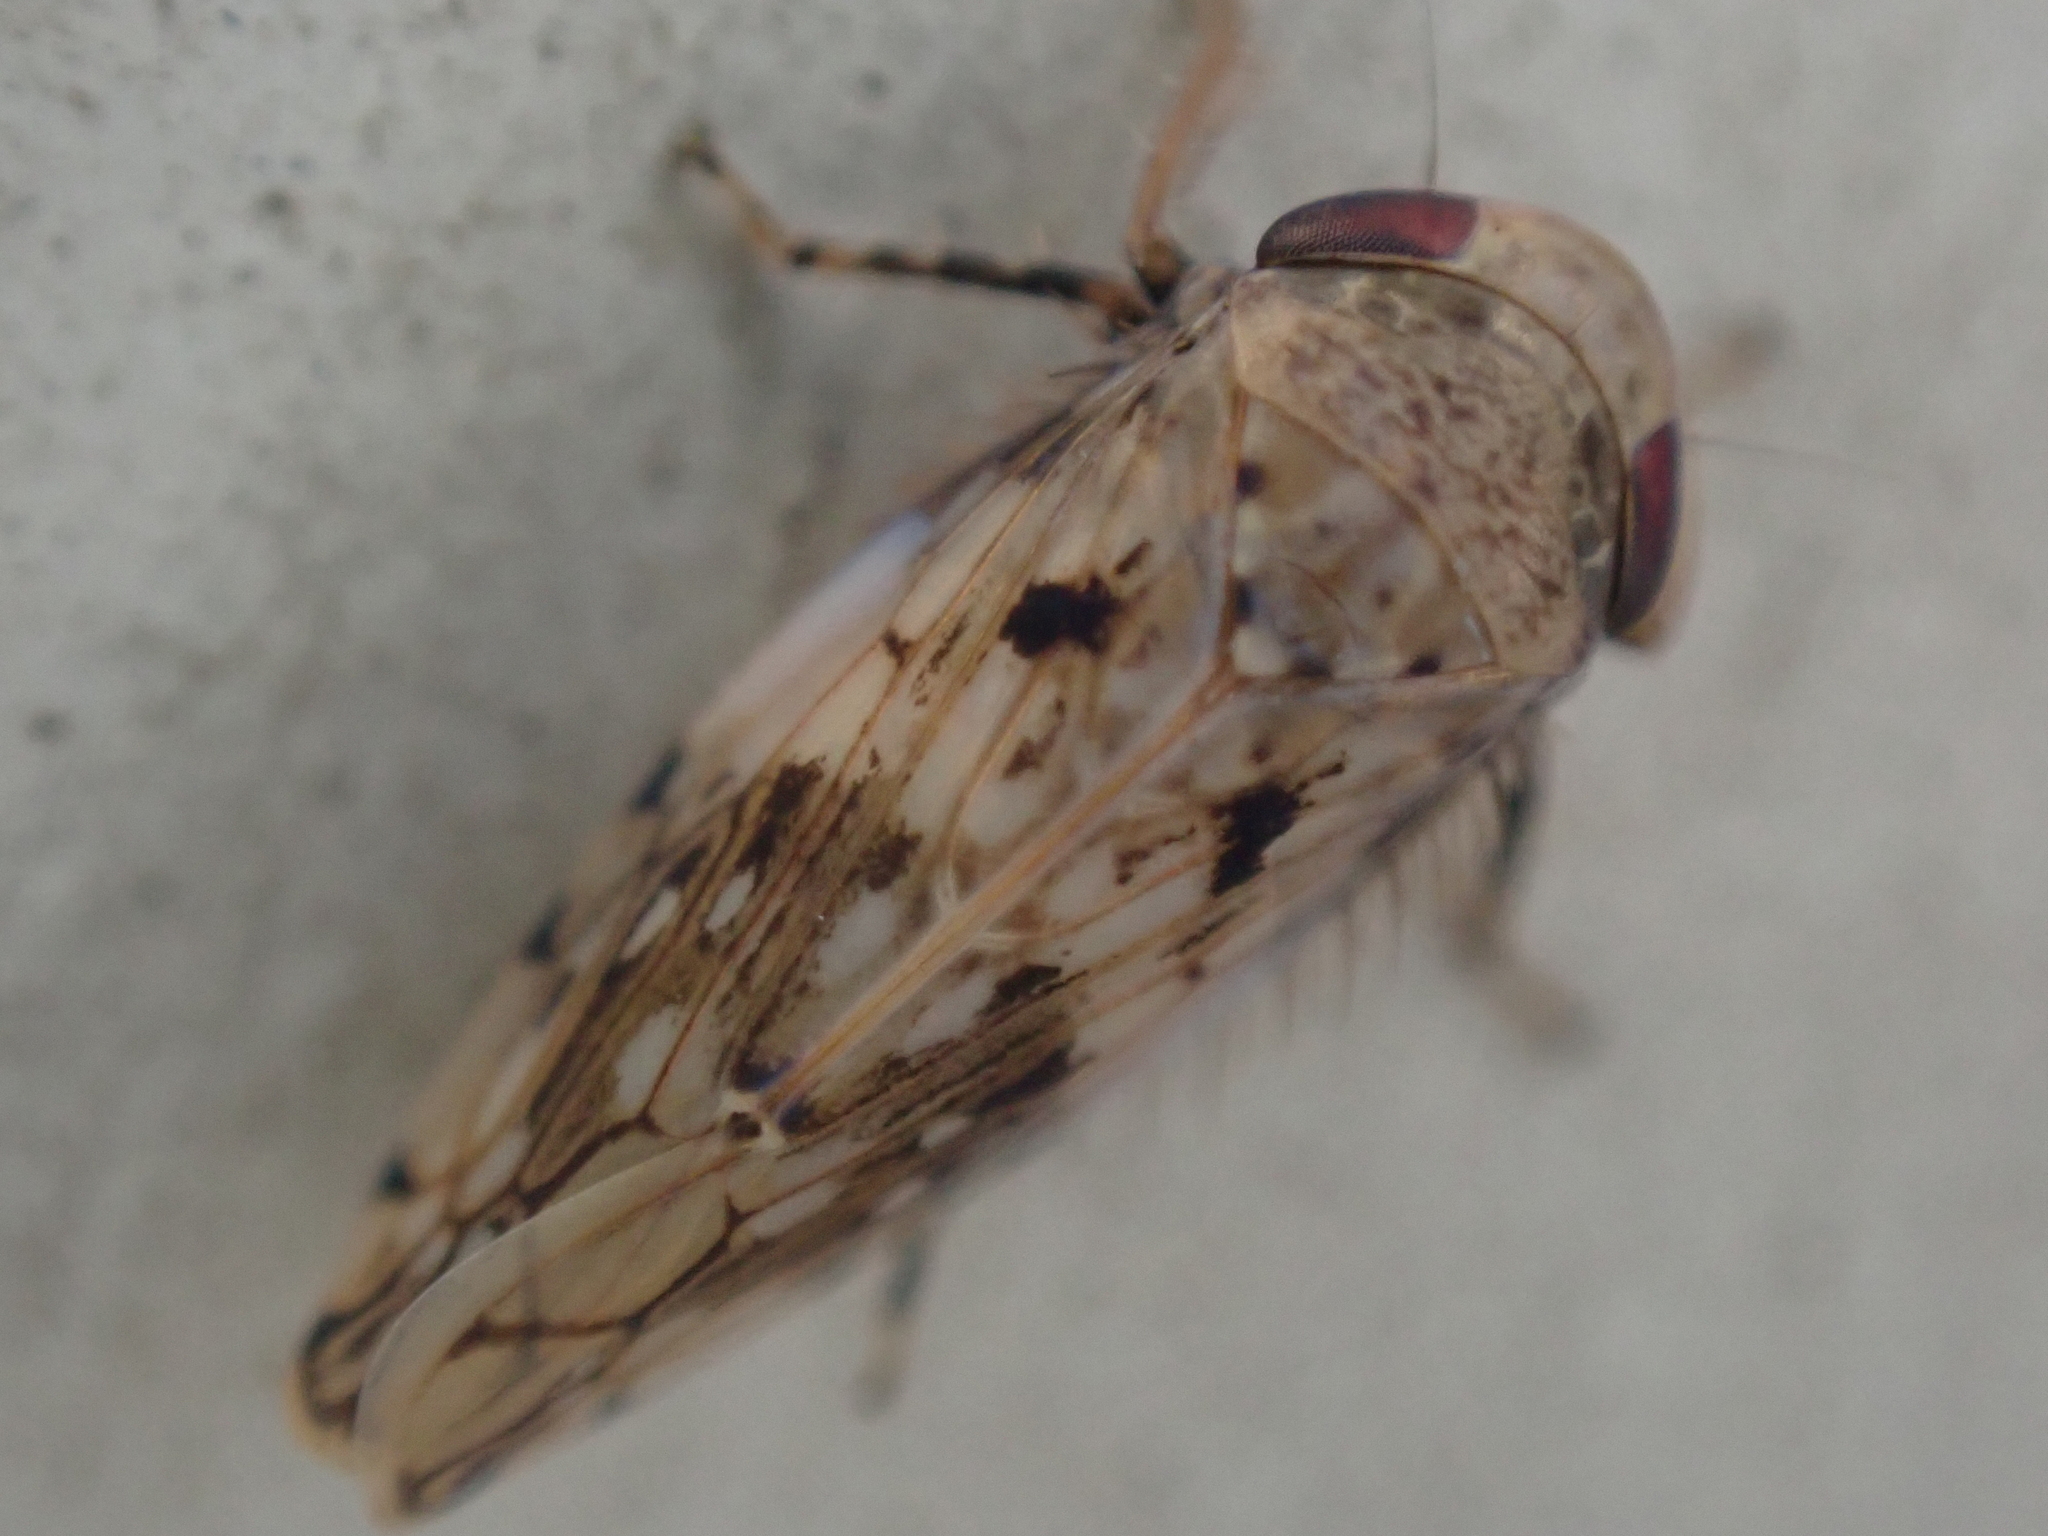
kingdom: Animalia
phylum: Arthropoda
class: Insecta
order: Hemiptera
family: Cicadellidae
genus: Menosoma
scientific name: Menosoma cinctum
